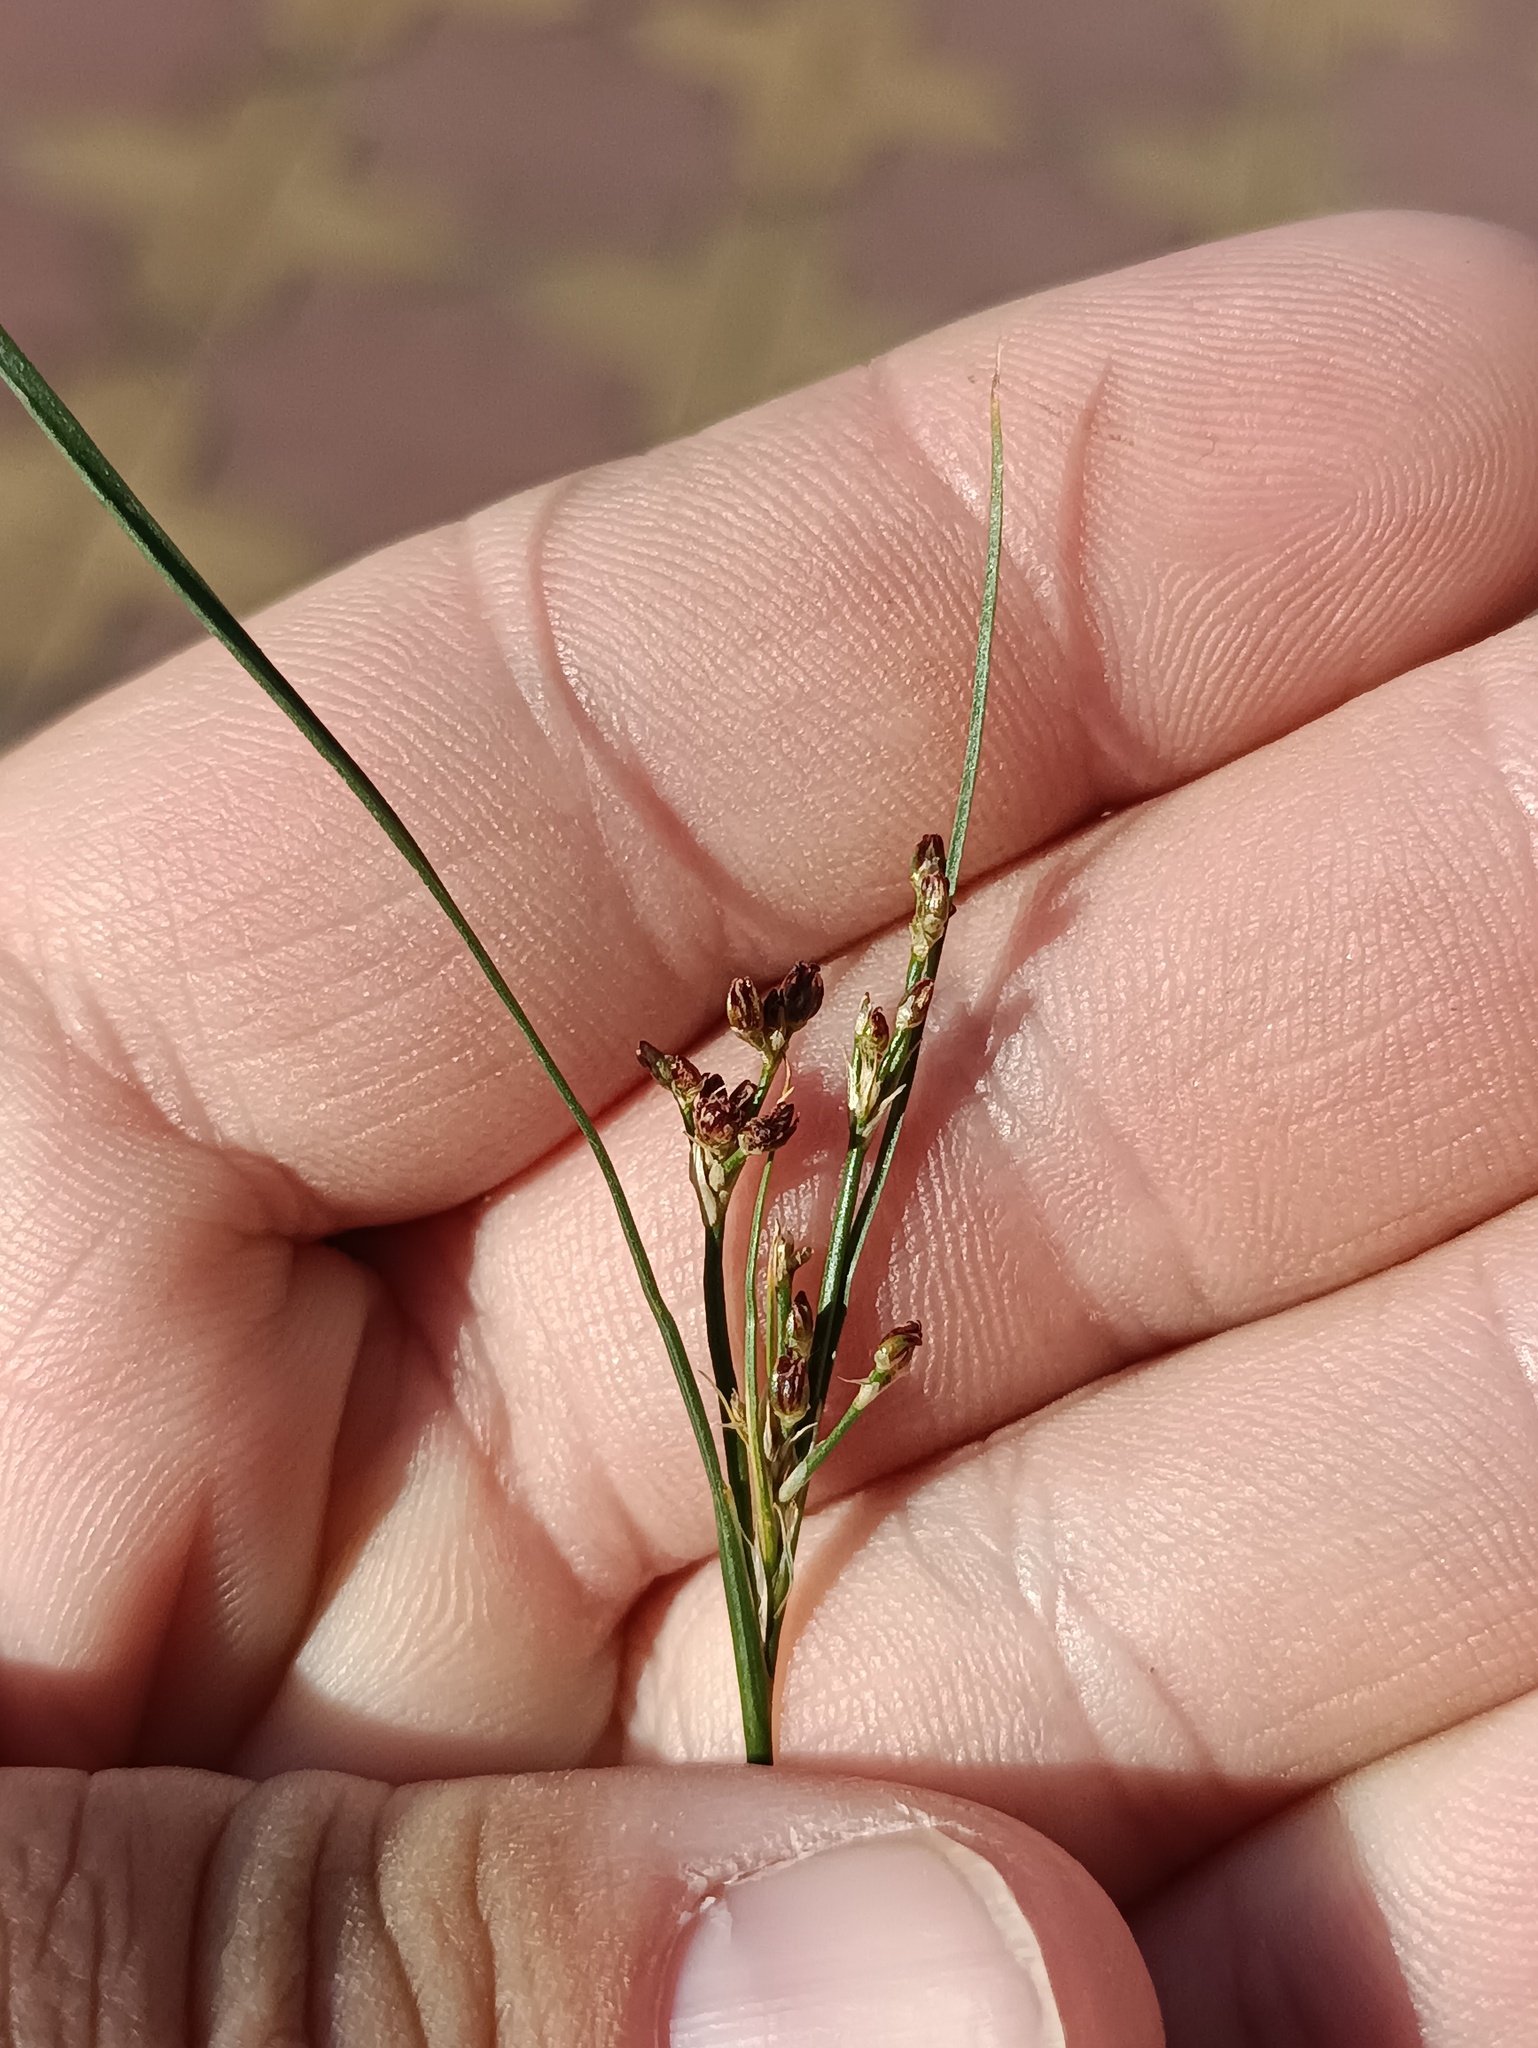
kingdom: Plantae
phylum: Tracheophyta
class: Liliopsida
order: Poales
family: Juncaceae
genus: Juncus
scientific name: Juncus compressus
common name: Round-fruited rush
